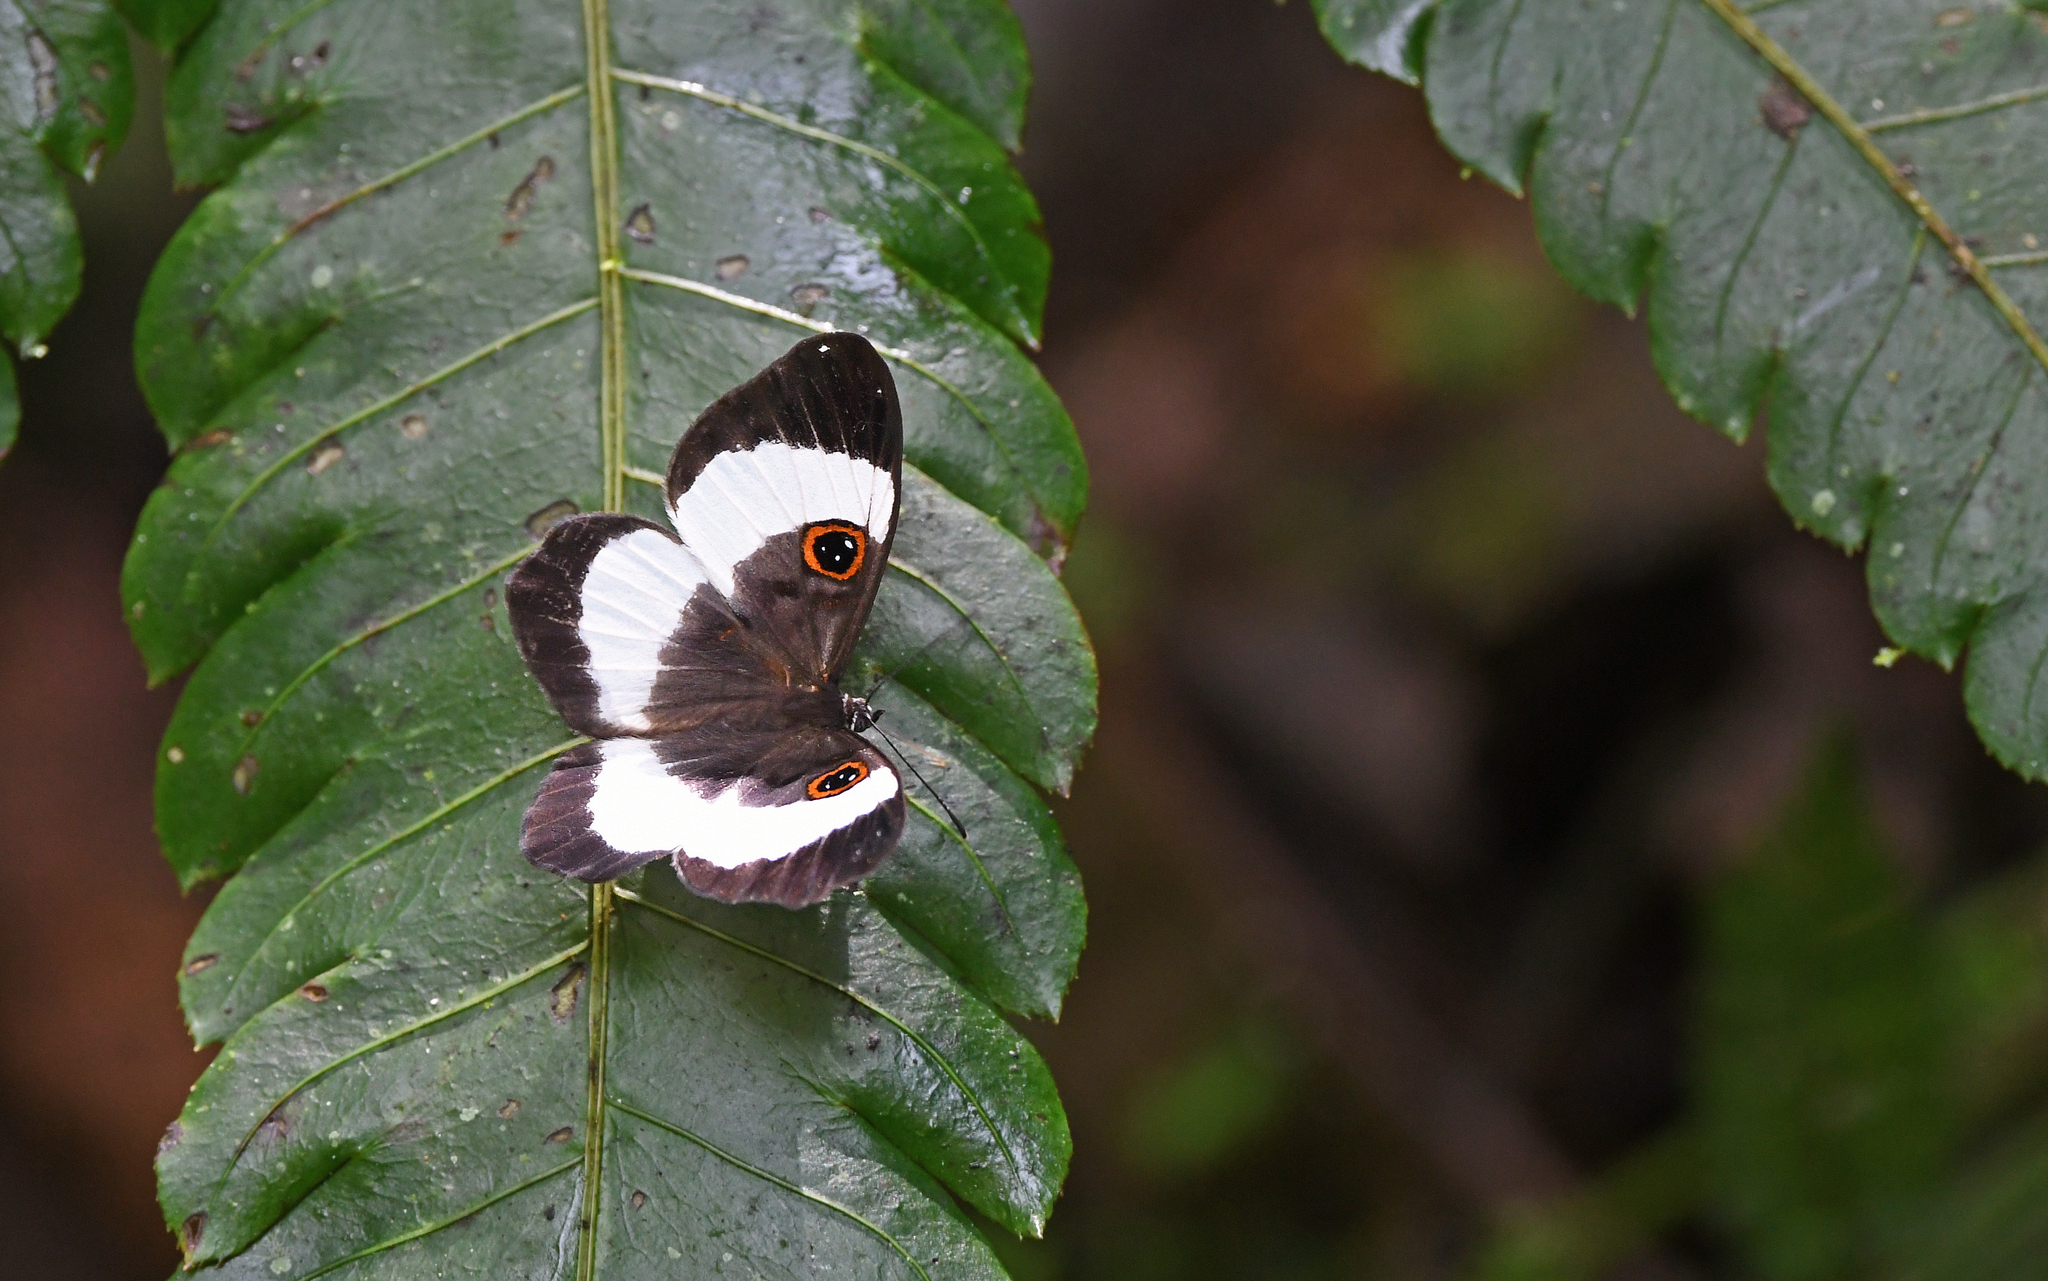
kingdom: Animalia
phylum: Arthropoda
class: Insecta
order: Lepidoptera
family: Riodinidae
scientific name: Riodinidae
